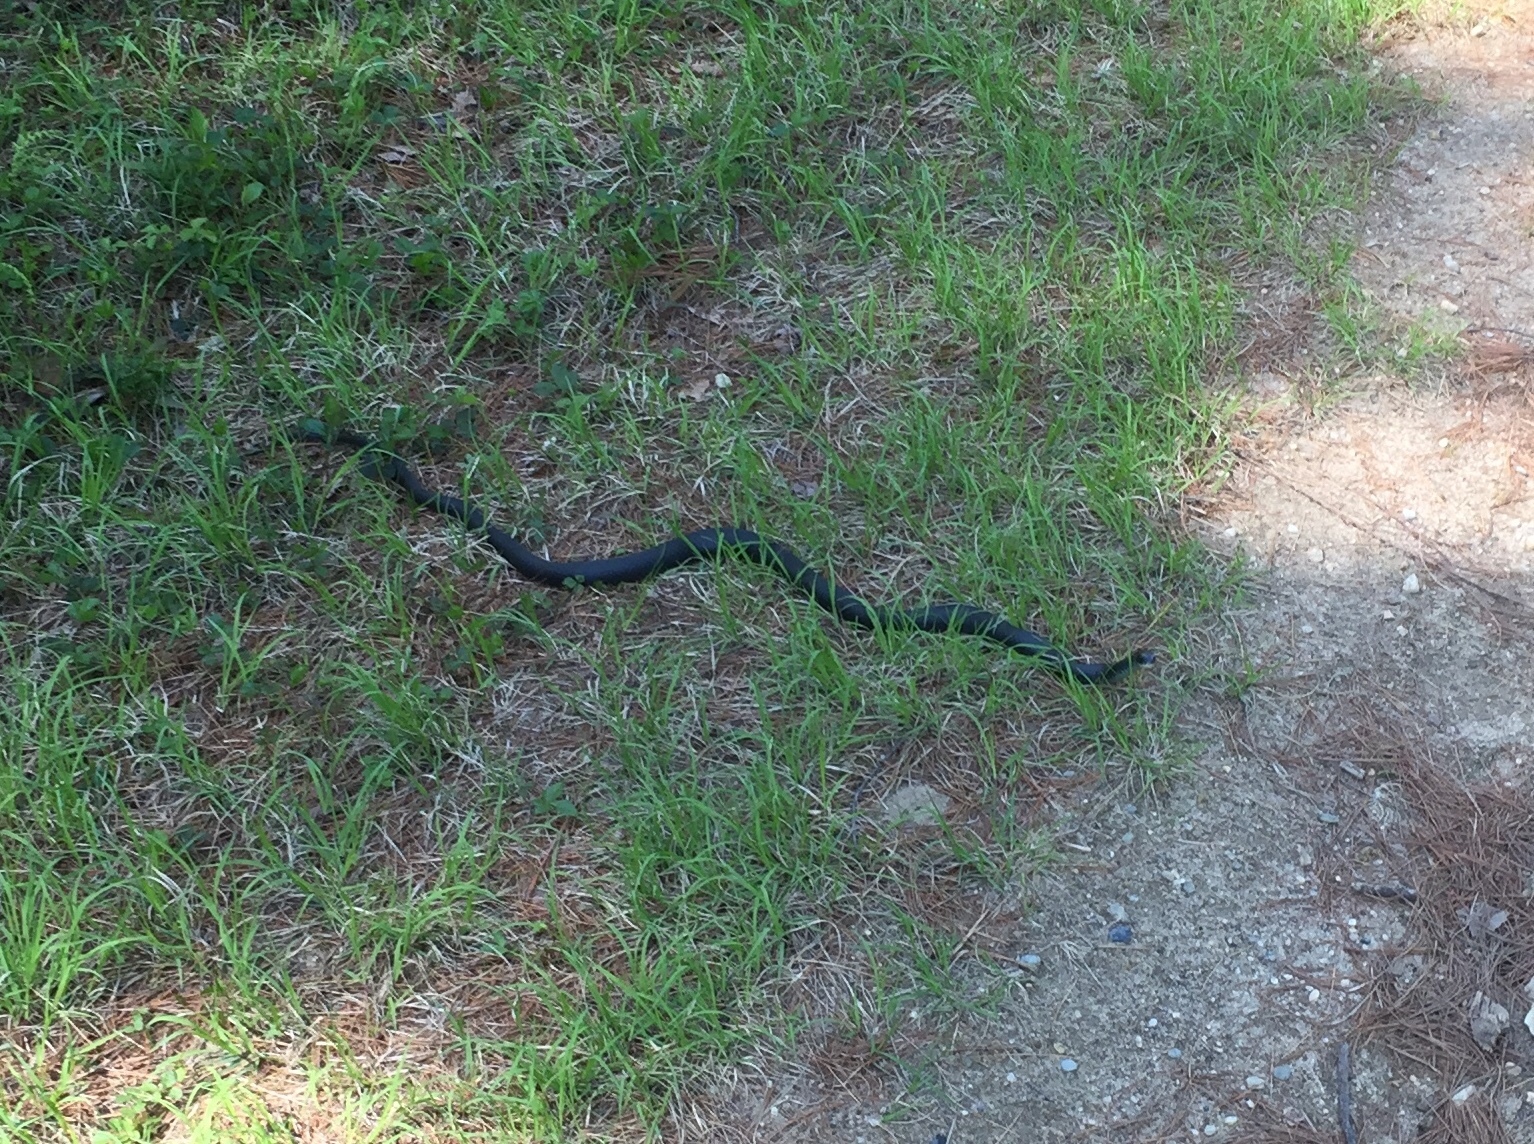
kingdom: Animalia
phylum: Chordata
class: Squamata
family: Colubridae
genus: Coluber
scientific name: Coluber constrictor
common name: Eastern racer
